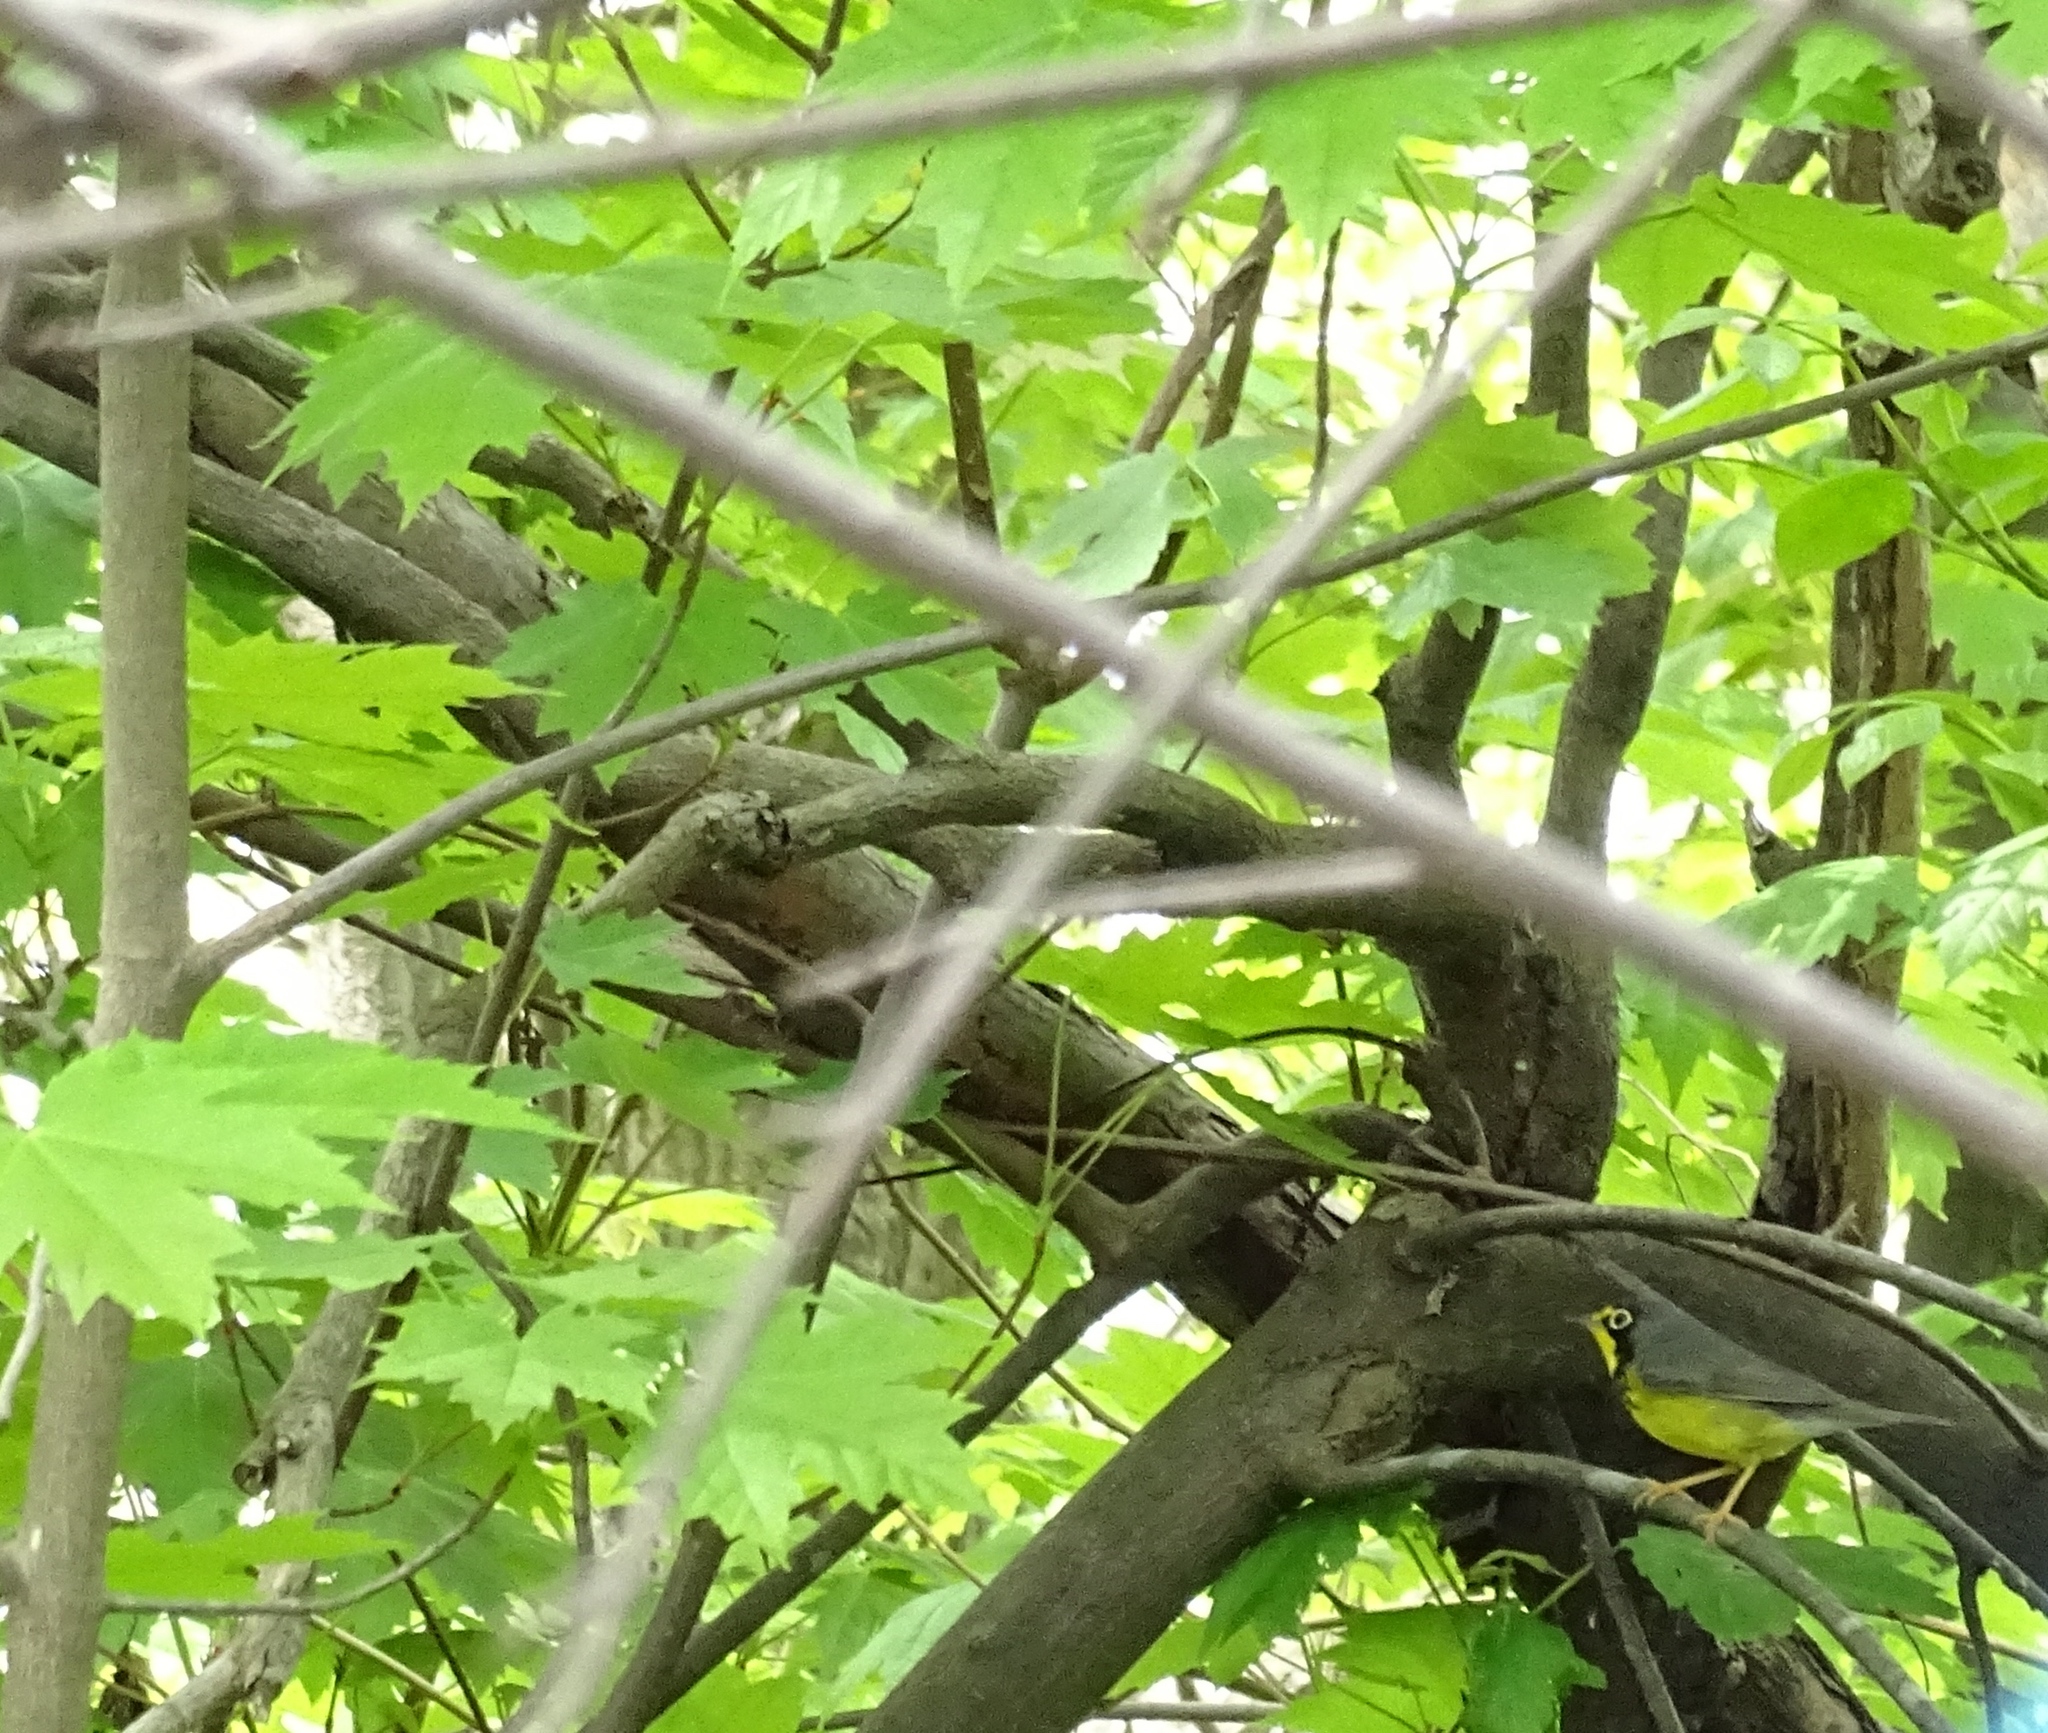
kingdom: Animalia
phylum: Chordata
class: Aves
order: Passeriformes
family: Parulidae
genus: Cardellina
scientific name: Cardellina canadensis
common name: Canada warbler
